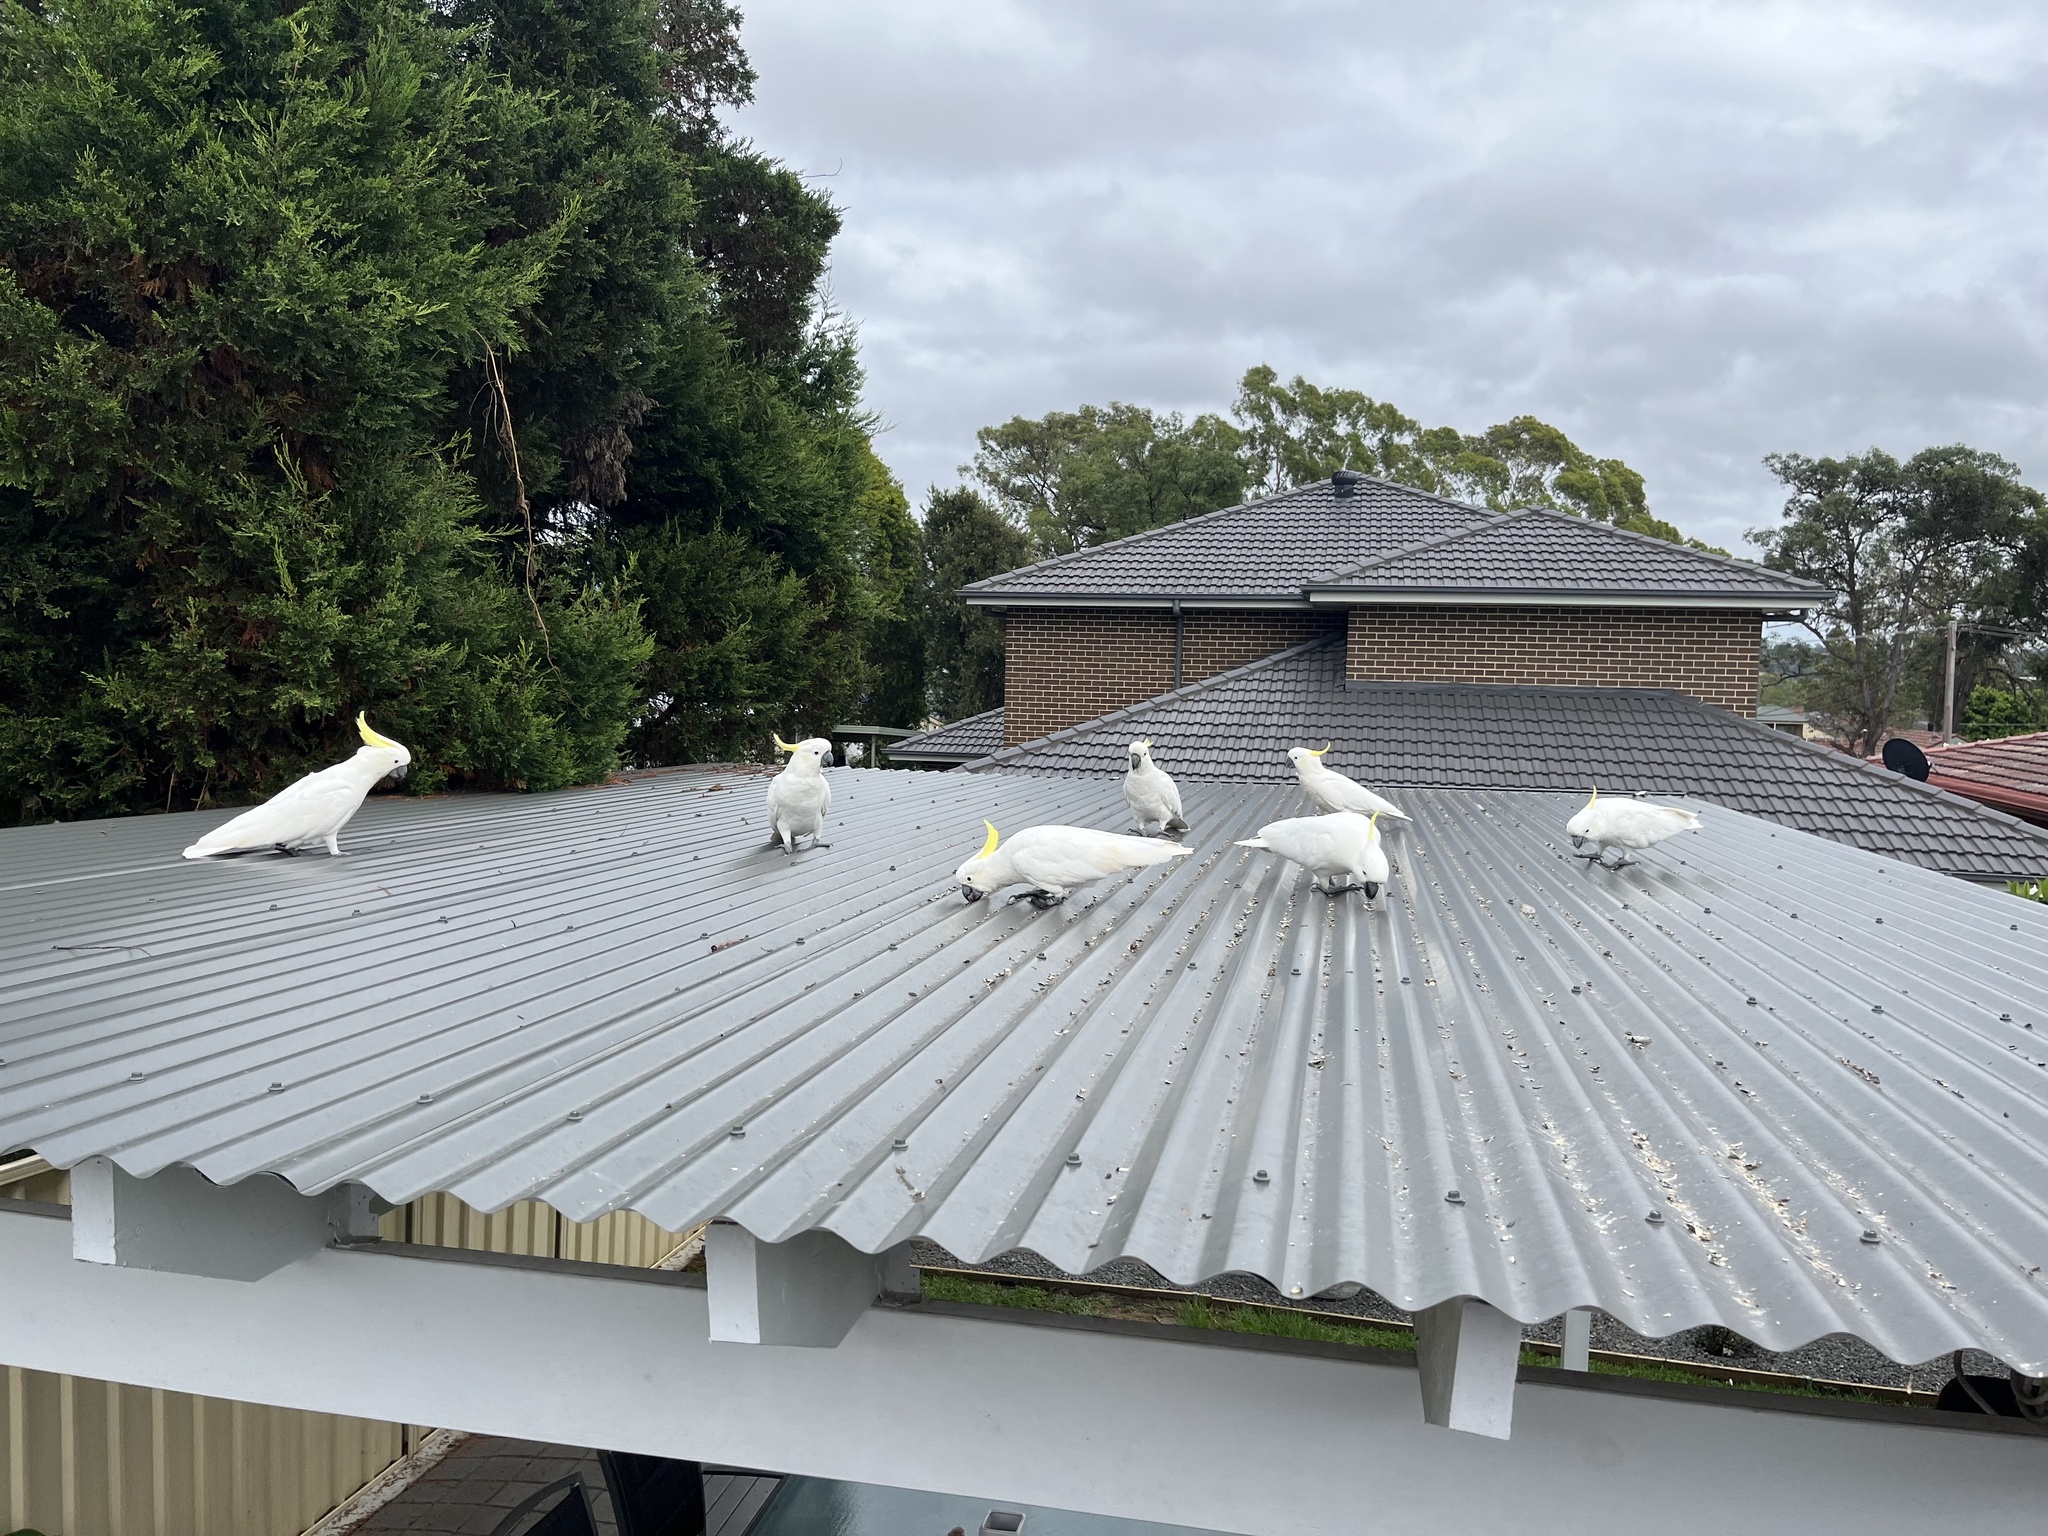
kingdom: Animalia
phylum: Chordata
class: Aves
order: Psittaciformes
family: Psittacidae
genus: Cacatua
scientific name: Cacatua galerita
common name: Sulphur-crested cockatoo
